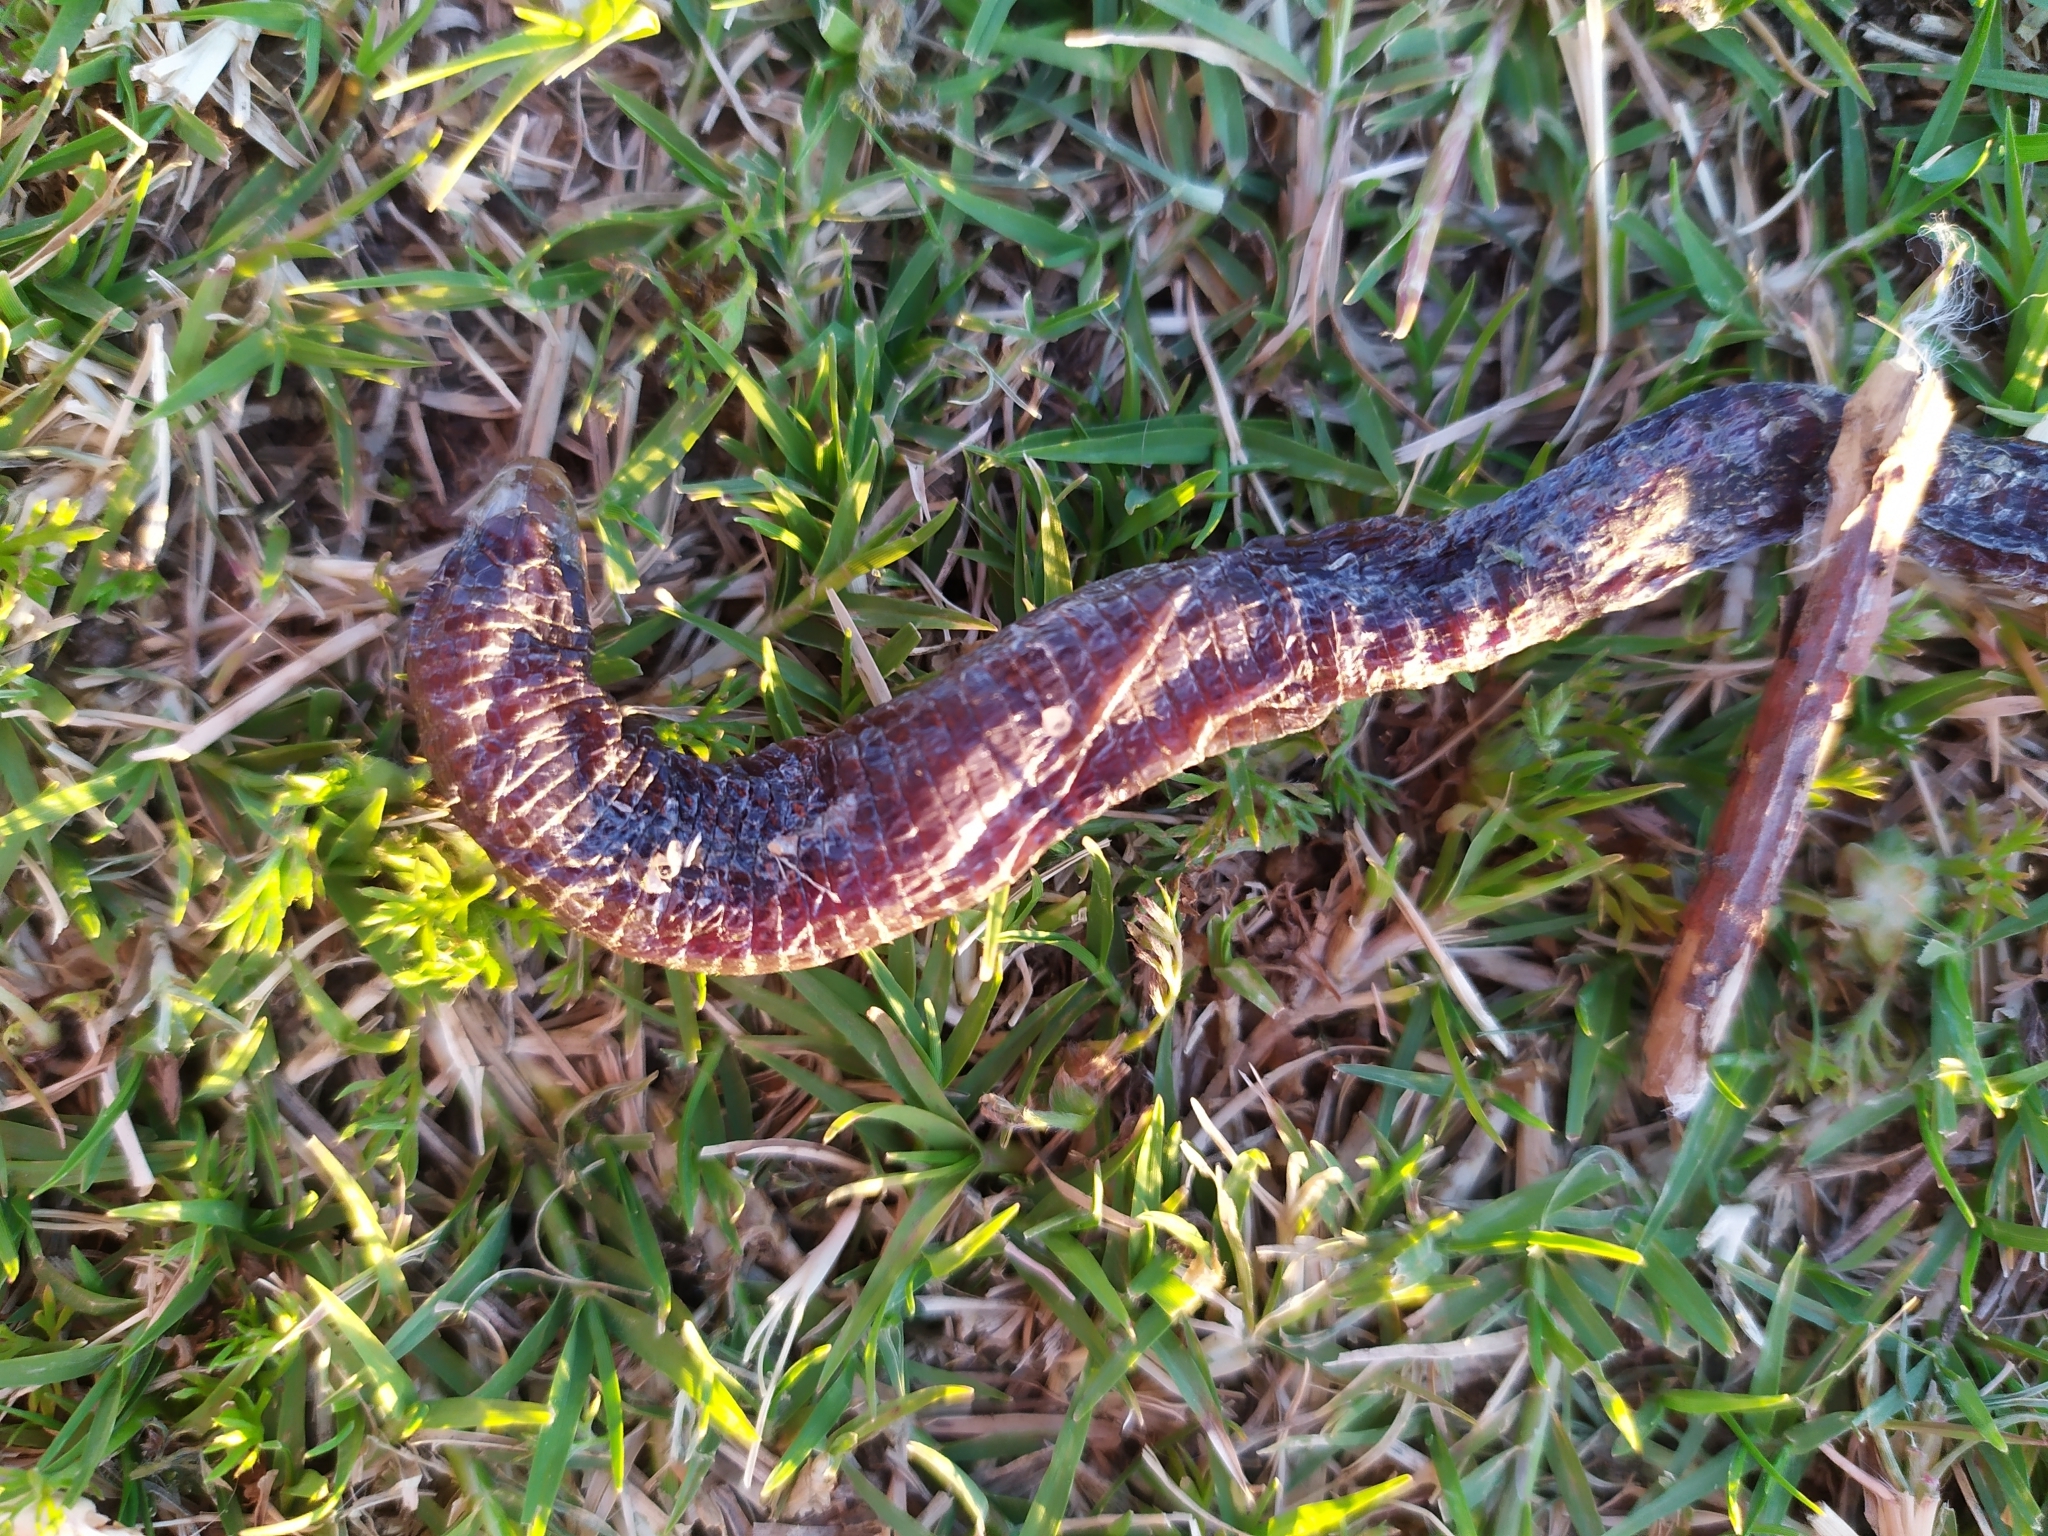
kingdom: Animalia
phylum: Chordata
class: Squamata
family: Amphisbaenidae
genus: Amphisbaena
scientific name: Amphisbaena darwinii
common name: Darwin's ringed worm lizard
